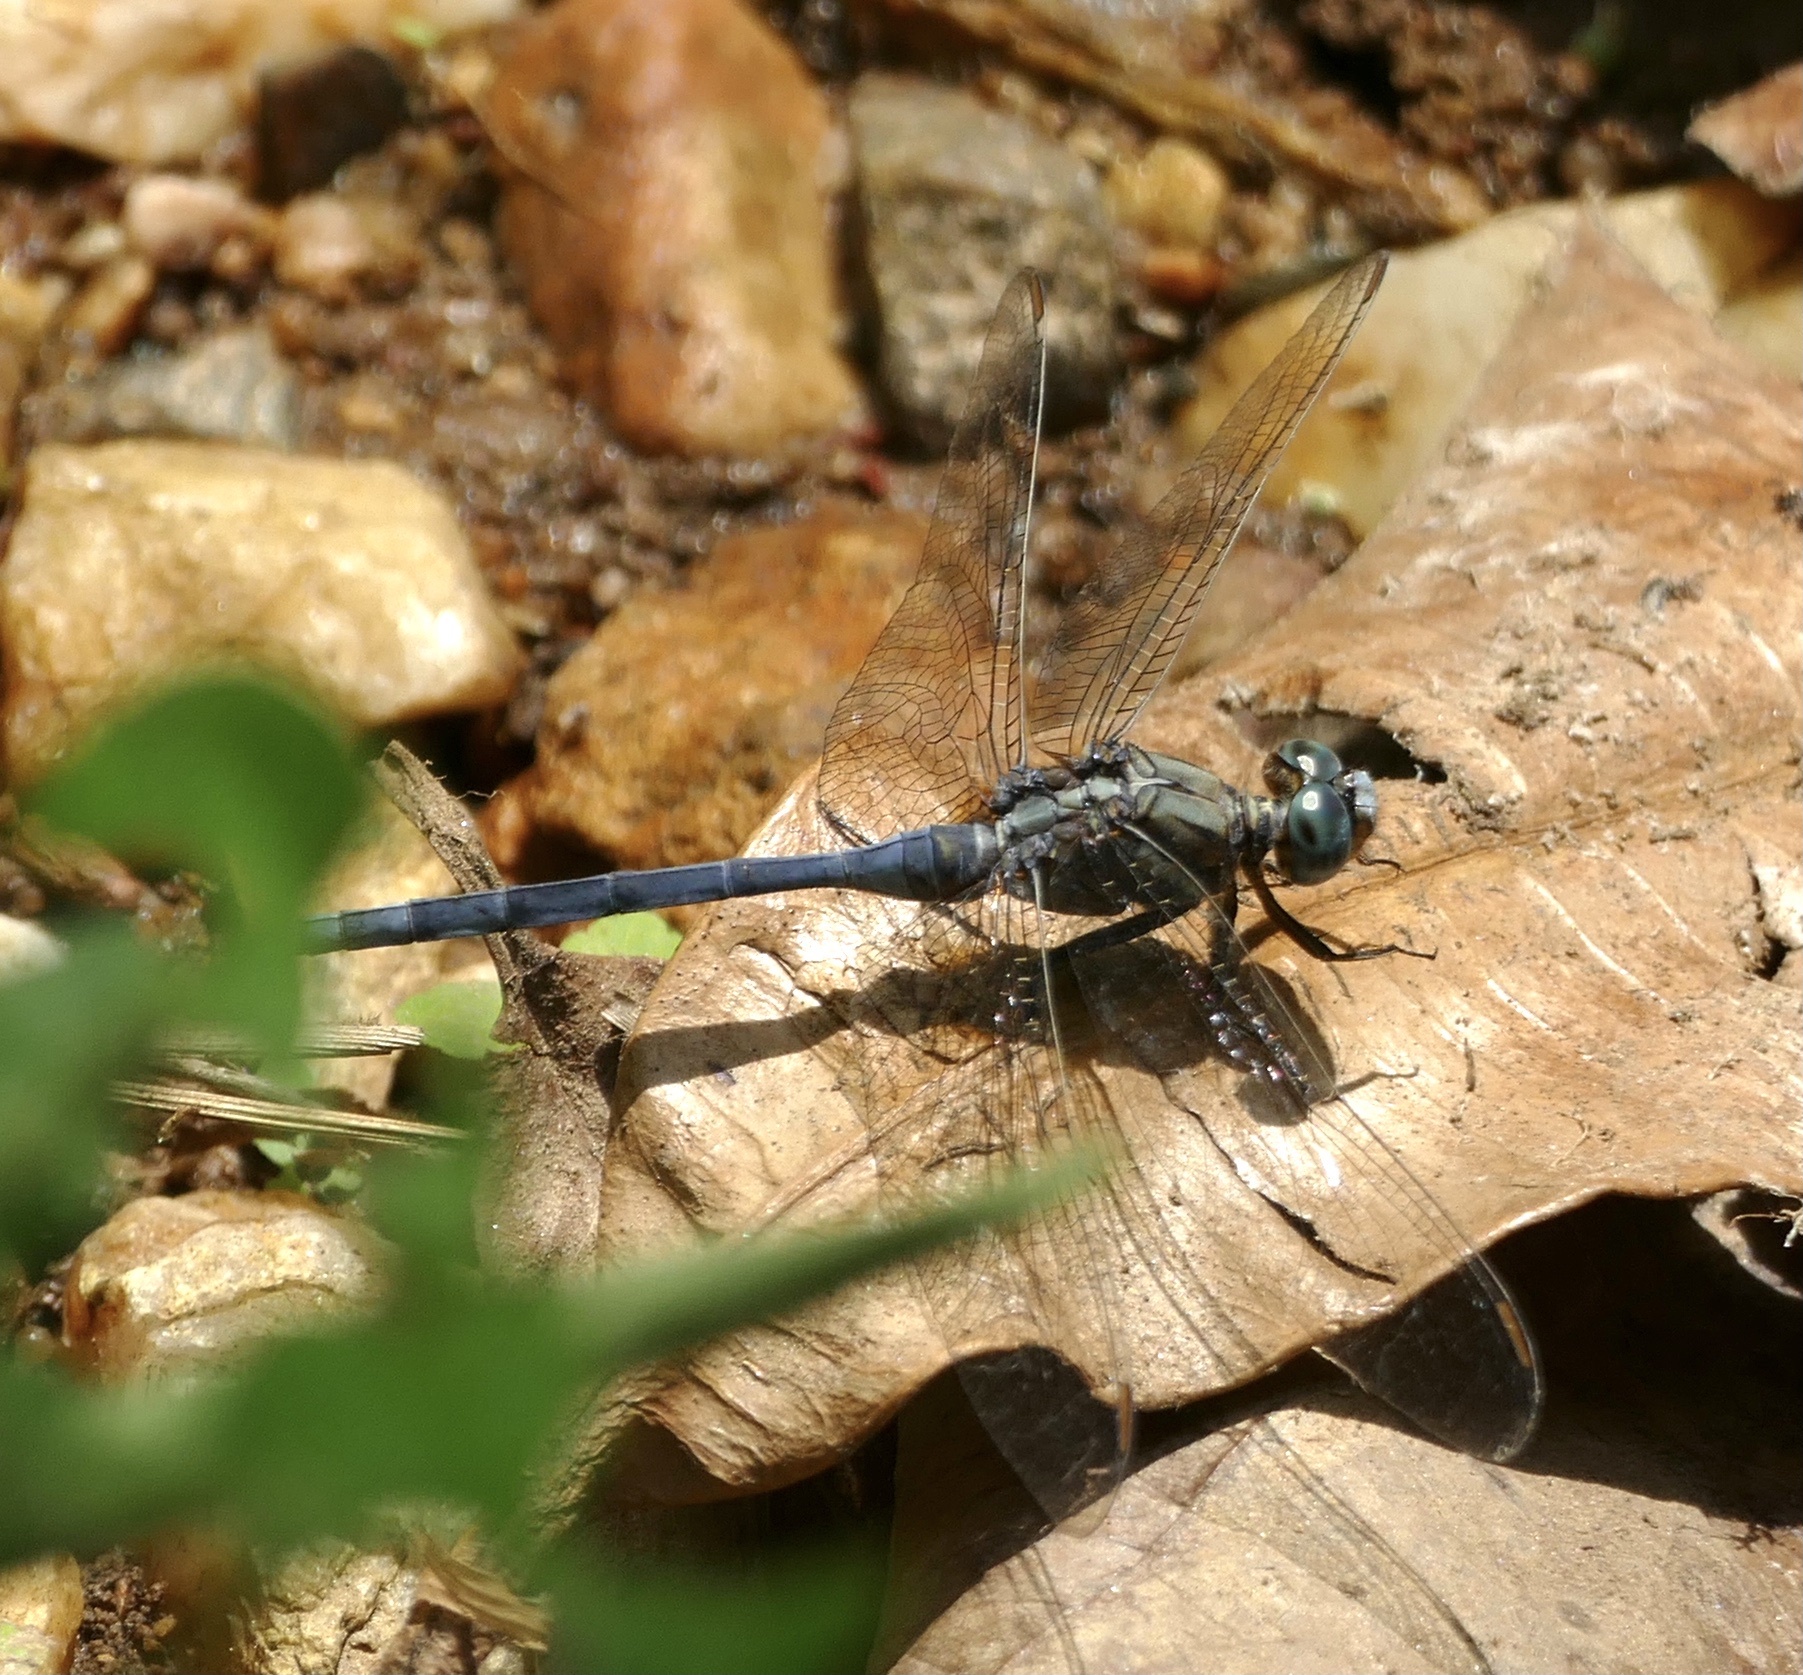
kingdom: Animalia
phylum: Arthropoda
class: Insecta
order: Odonata
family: Libellulidae
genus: Orthetrum
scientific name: Orthetrum chrysostigma
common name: Epaulet skimmer
